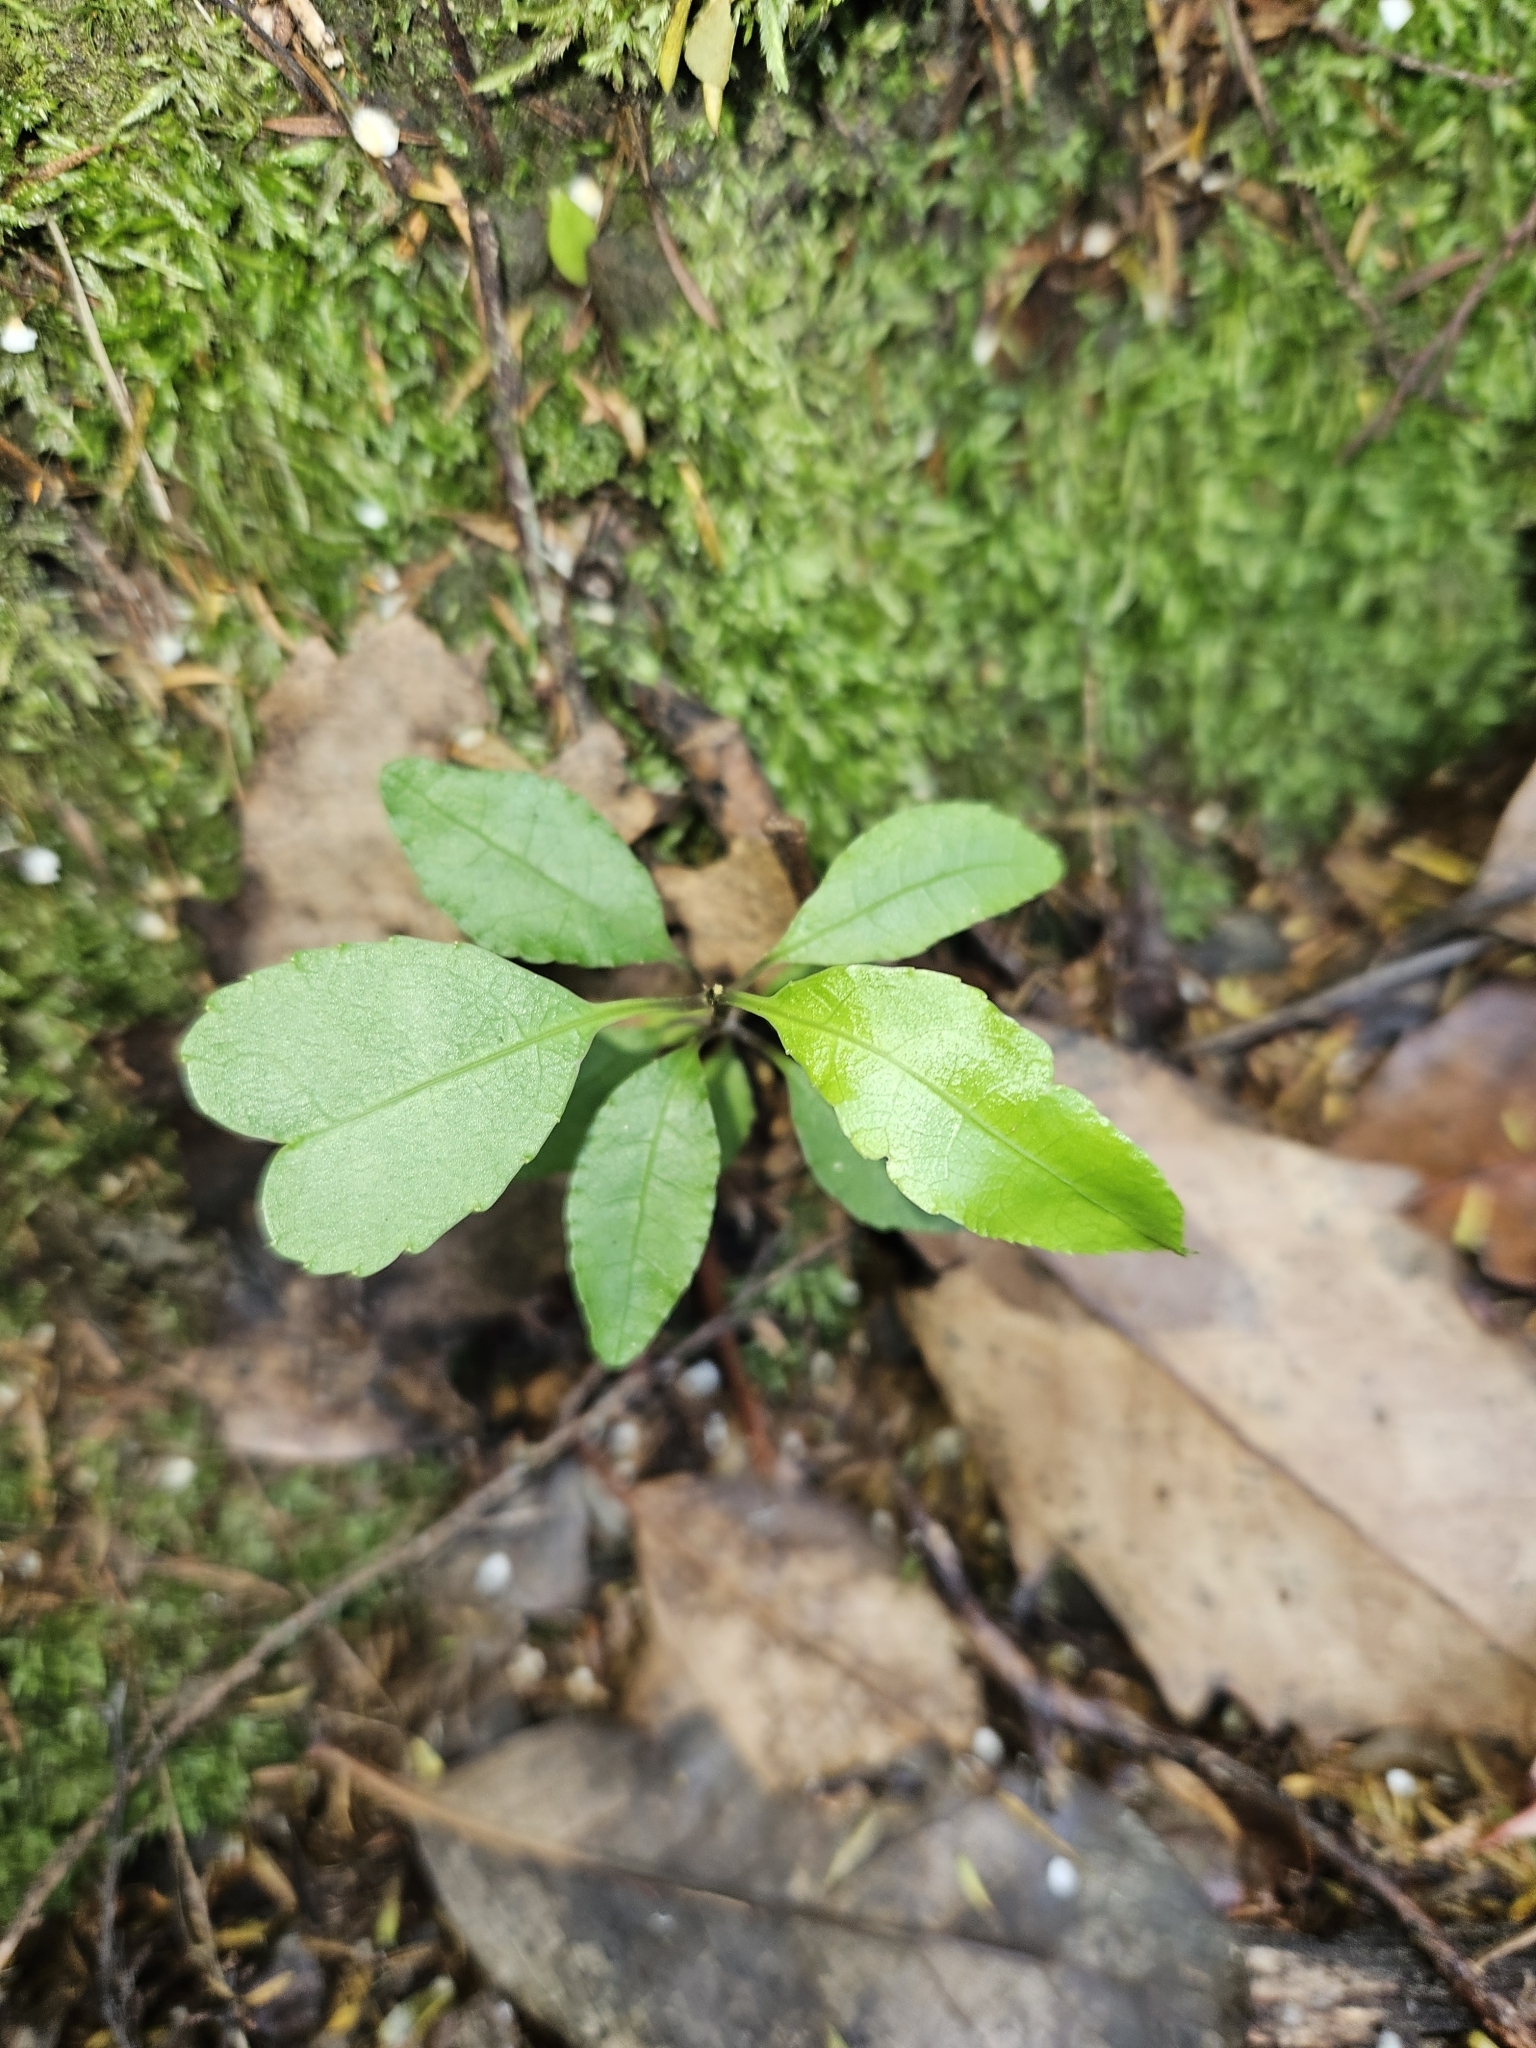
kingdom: Plantae
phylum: Tracheophyta
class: Magnoliopsida
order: Malpighiales
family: Violaceae
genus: Melicytus
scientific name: Melicytus ramiflorus
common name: Mahoe
